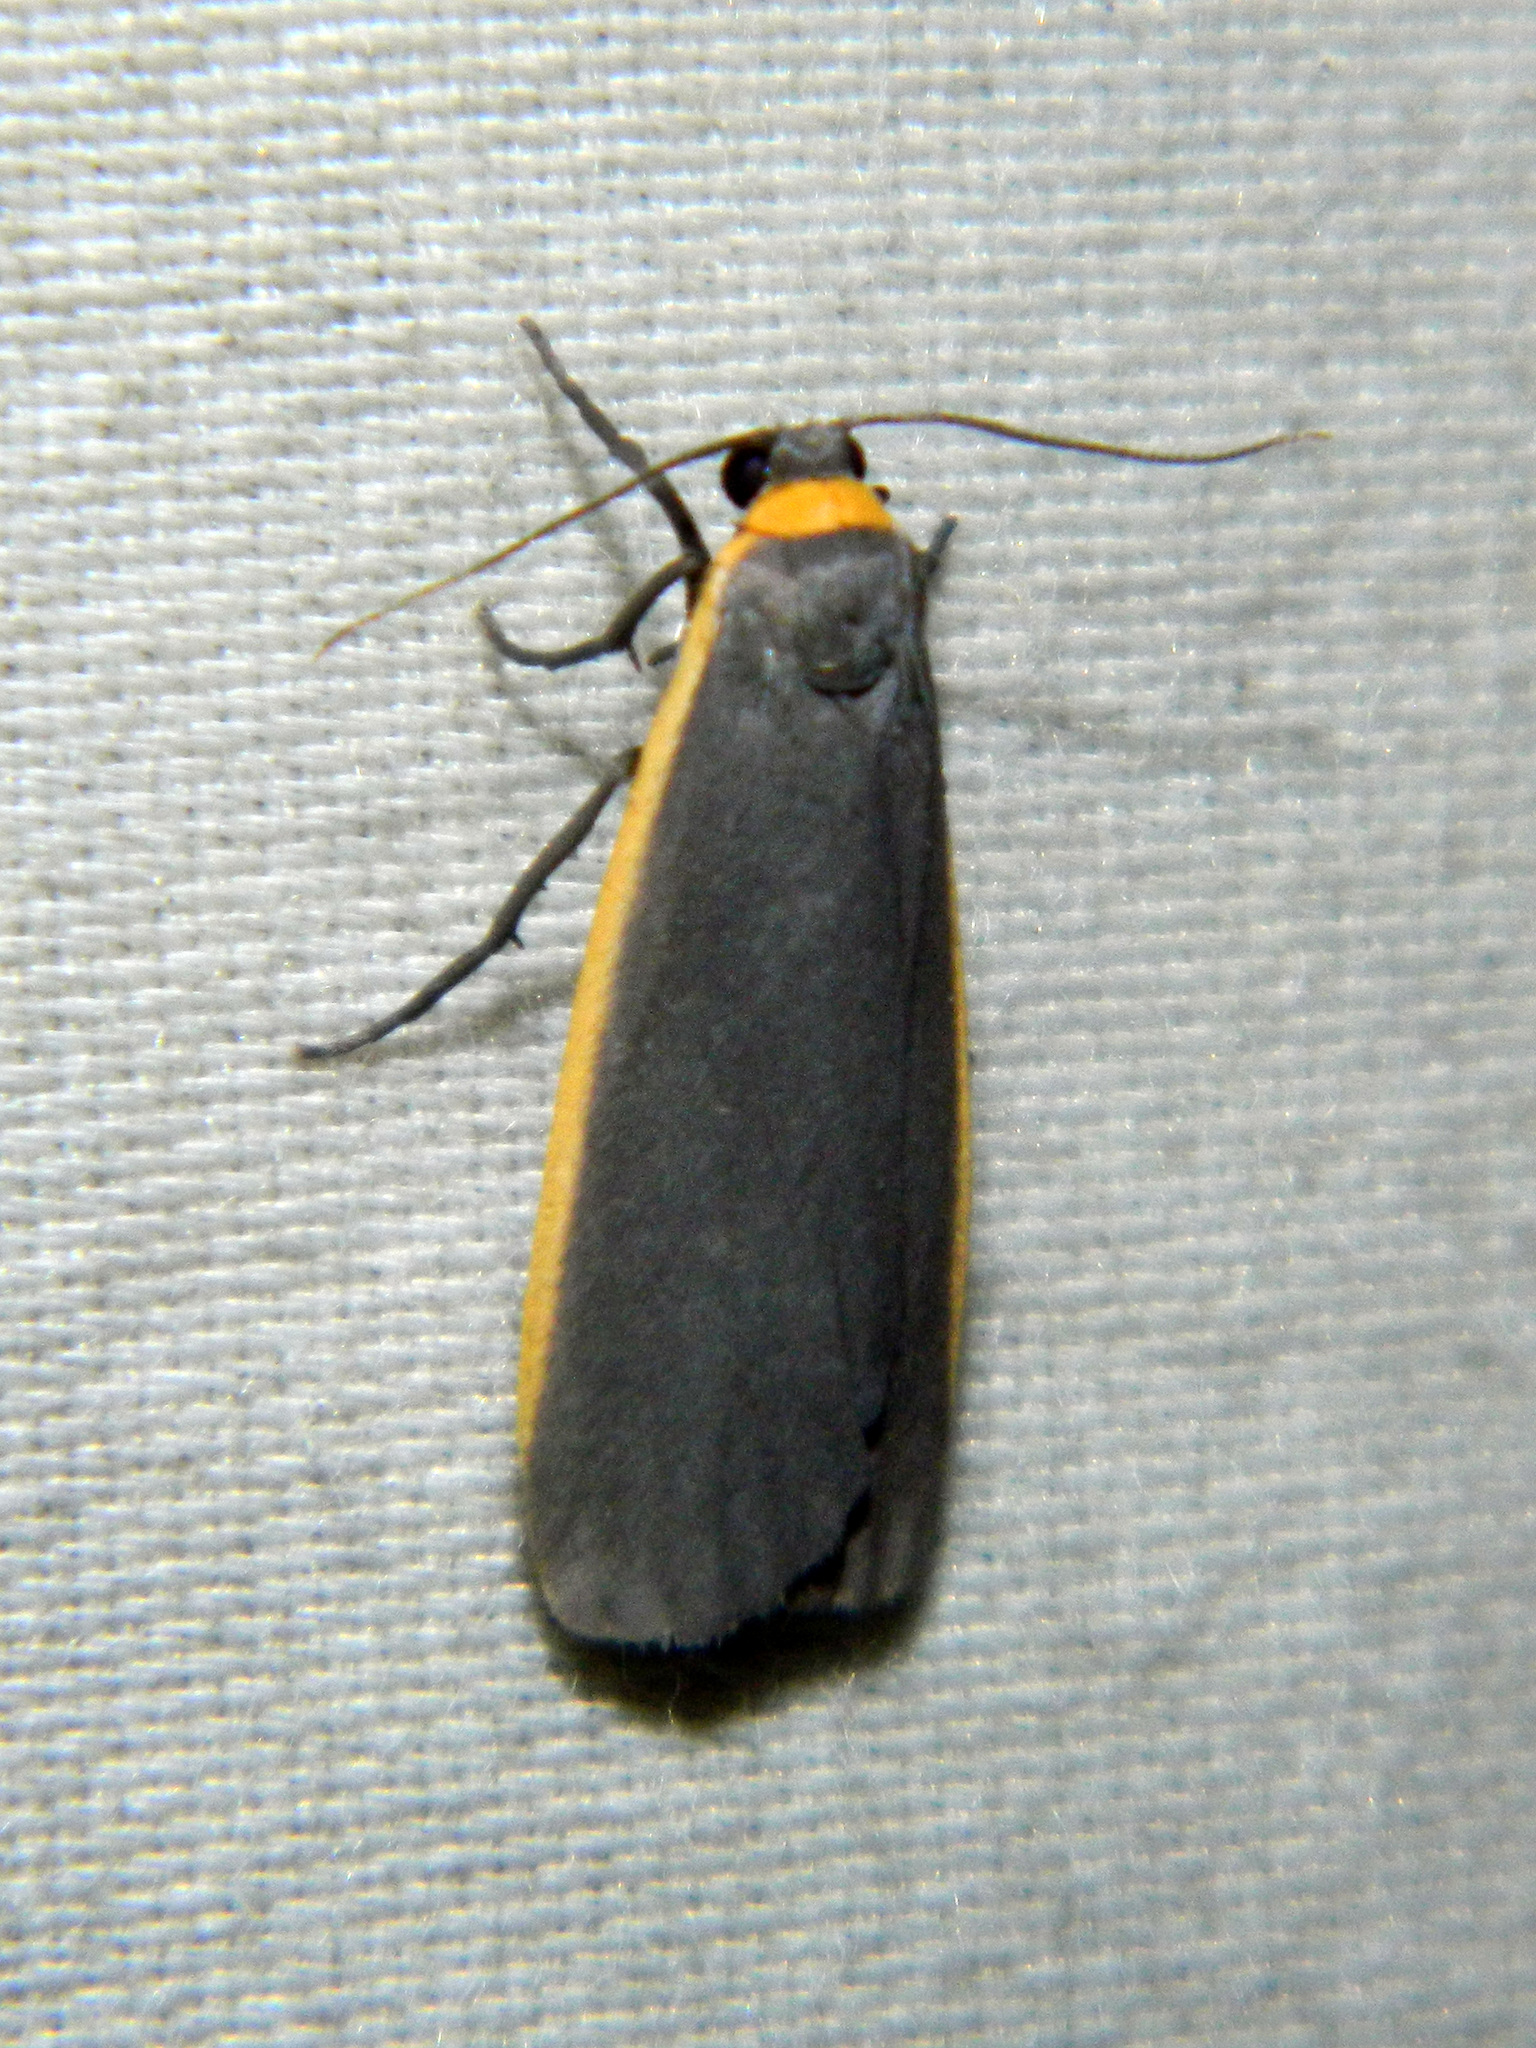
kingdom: Animalia
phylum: Arthropoda
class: Insecta
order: Lepidoptera
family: Erebidae
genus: Manulea
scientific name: Manulea bicolor
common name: Bicolored moth
